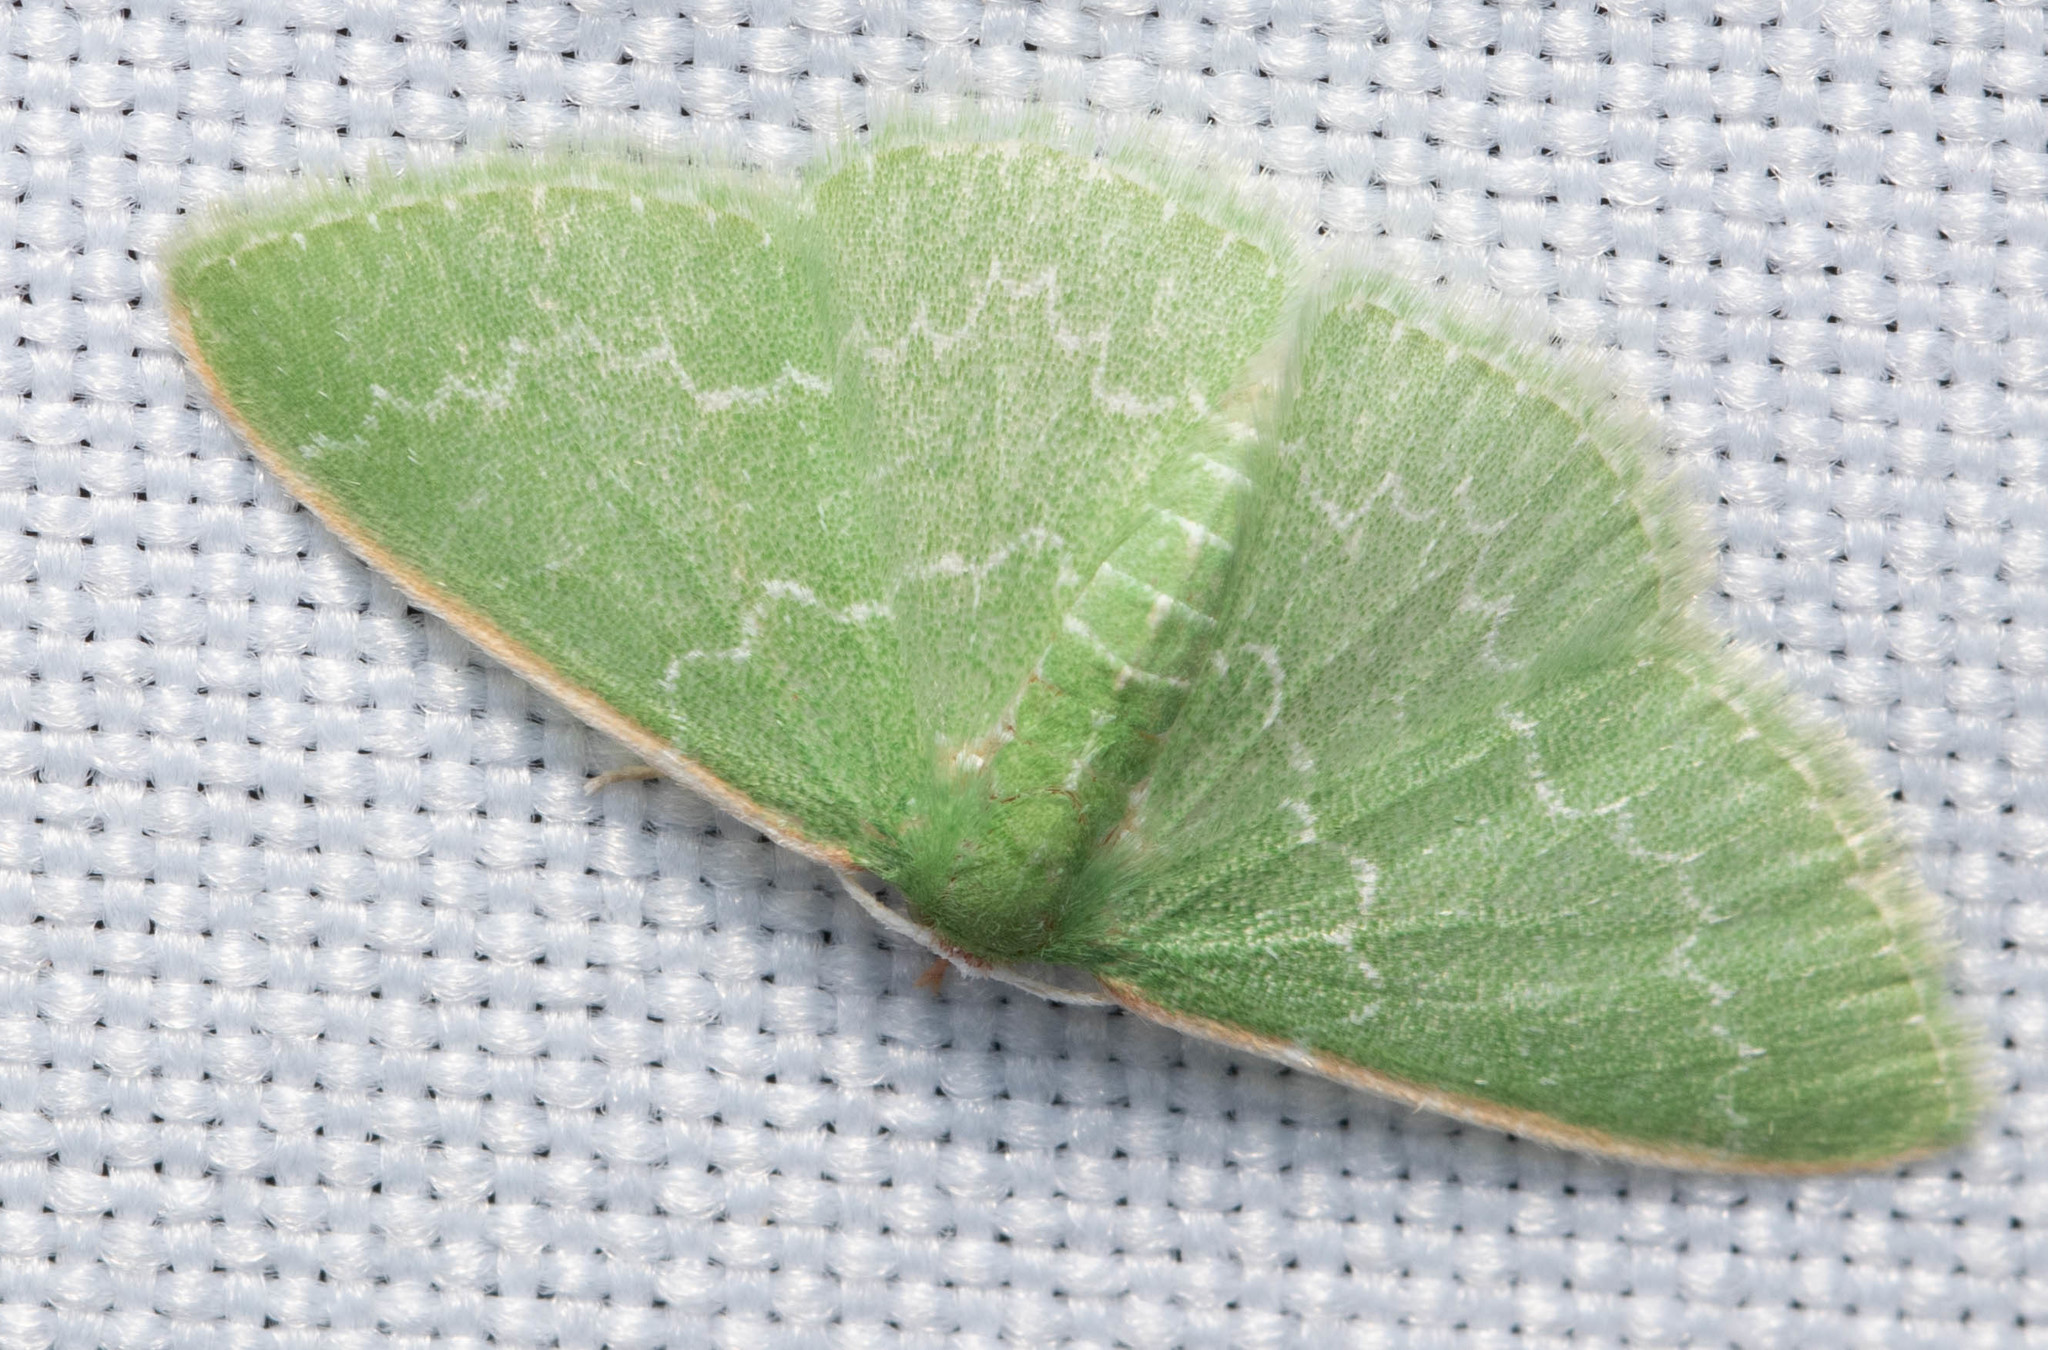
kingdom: Animalia
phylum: Arthropoda
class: Insecta
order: Lepidoptera
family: Geometridae
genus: Synchlora
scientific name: Synchlora frondaria
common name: Southern emerald
